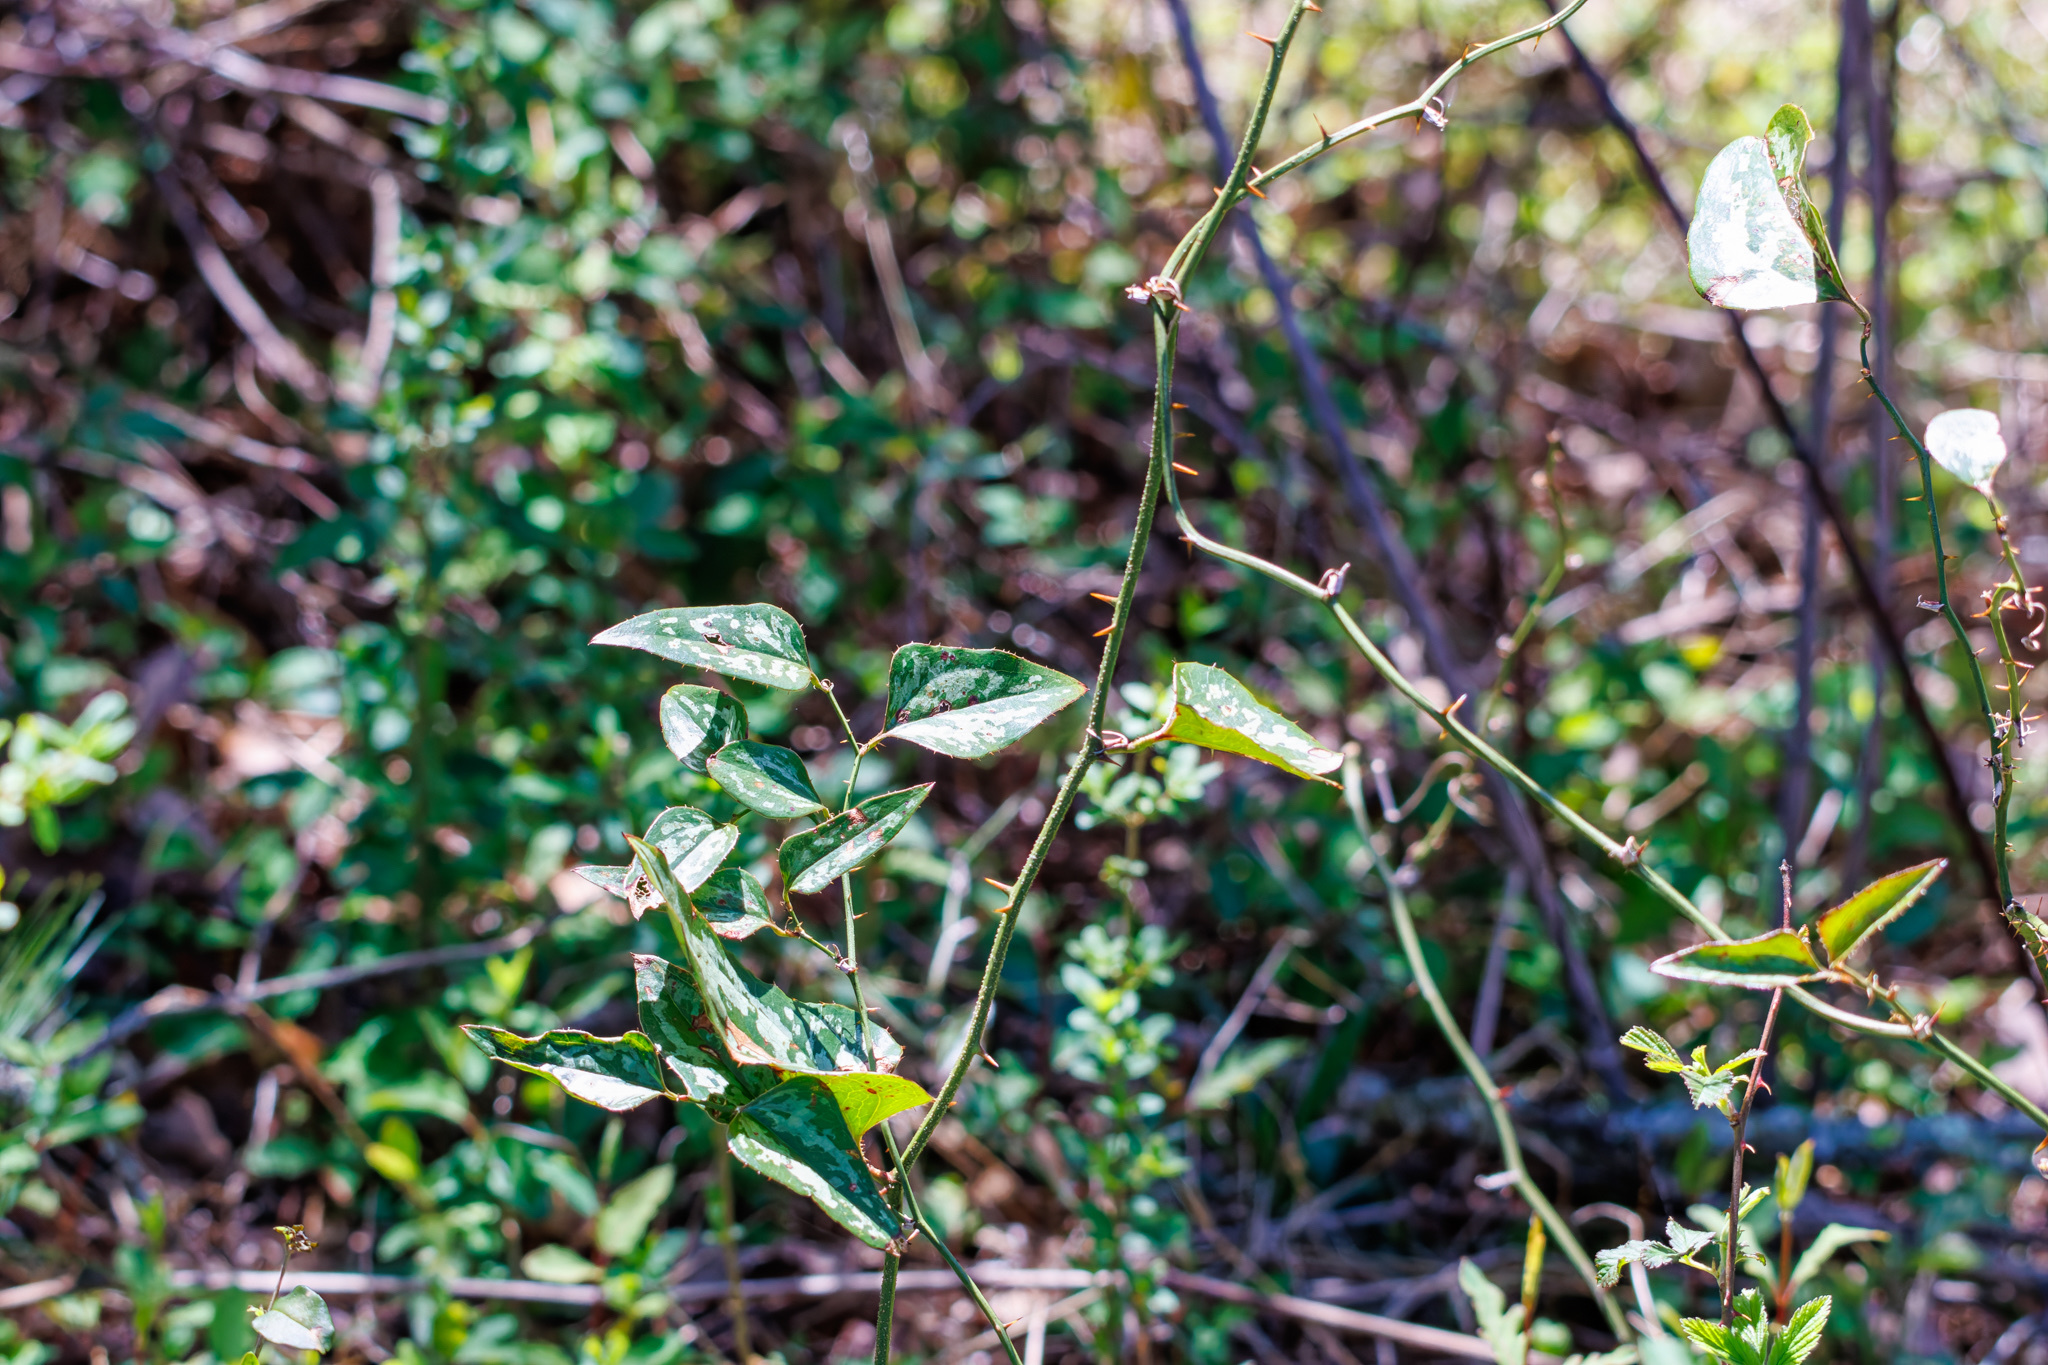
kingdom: Plantae
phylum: Tracheophyta
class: Liliopsida
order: Liliales
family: Smilacaceae
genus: Smilax
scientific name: Smilax bona-nox
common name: Catbrier
